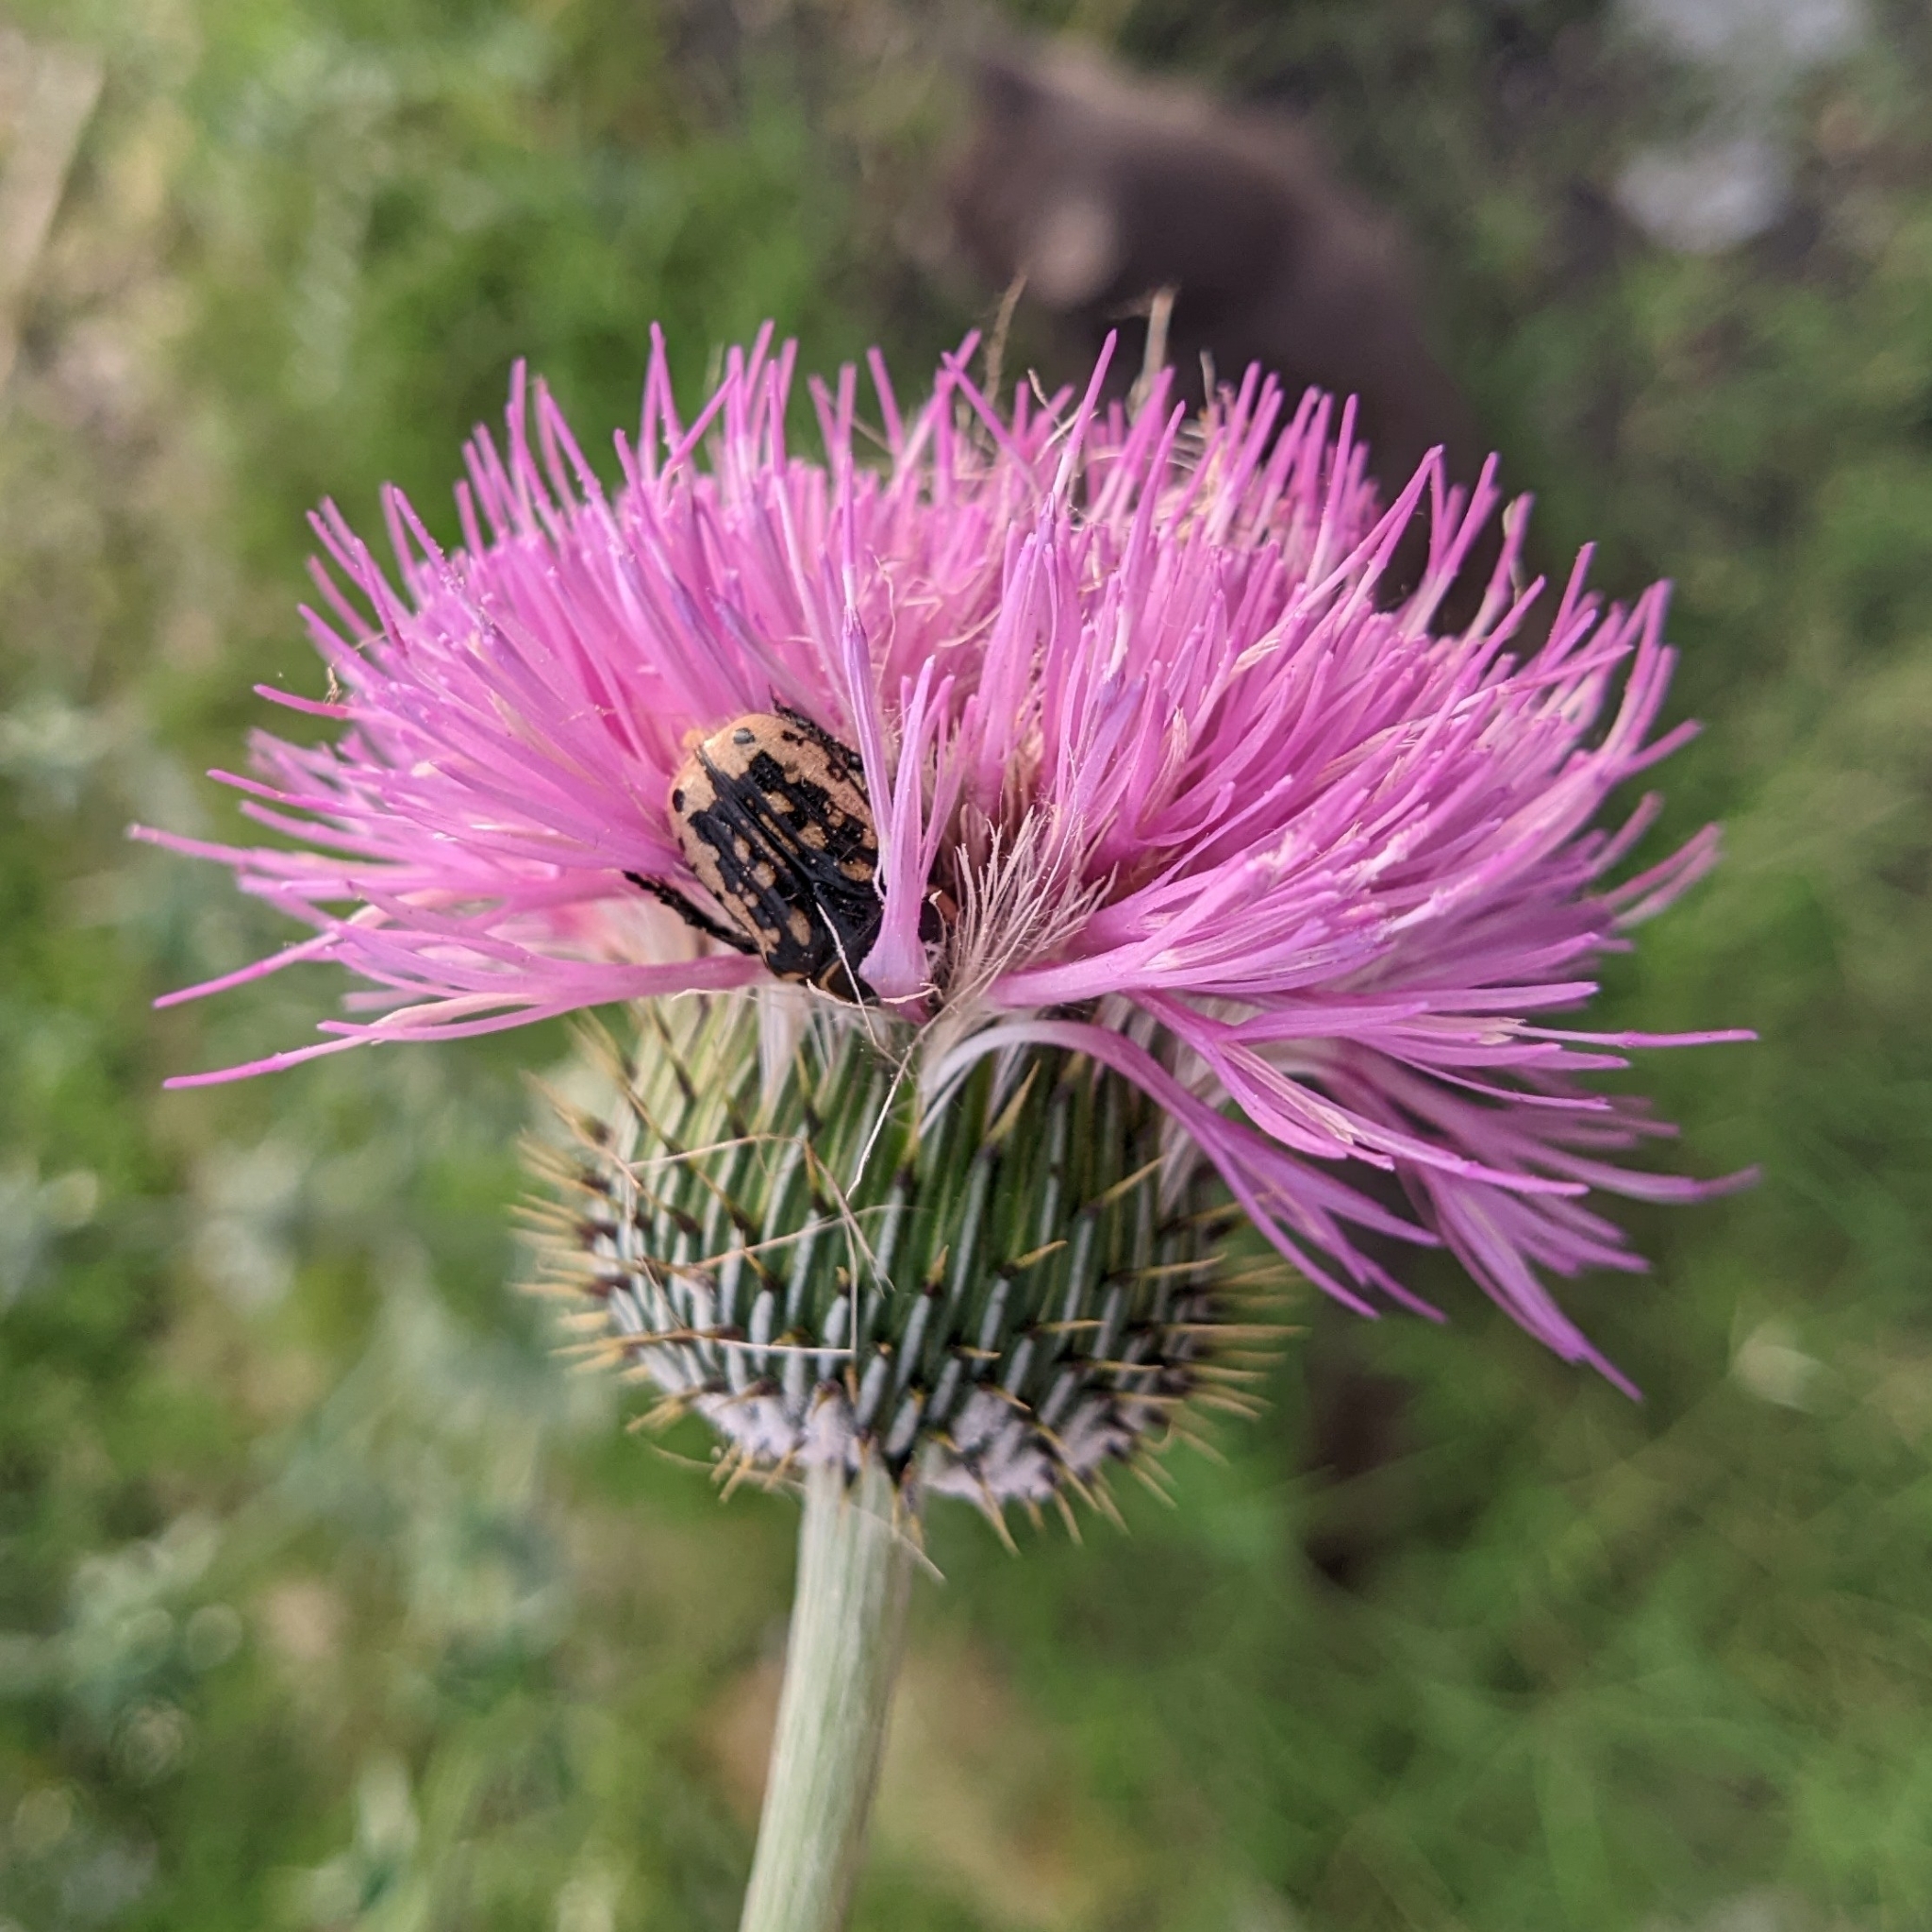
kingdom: Animalia
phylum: Arthropoda
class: Insecta
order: Coleoptera
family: Scarabaeidae
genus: Euphoria
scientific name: Euphoria kernii
